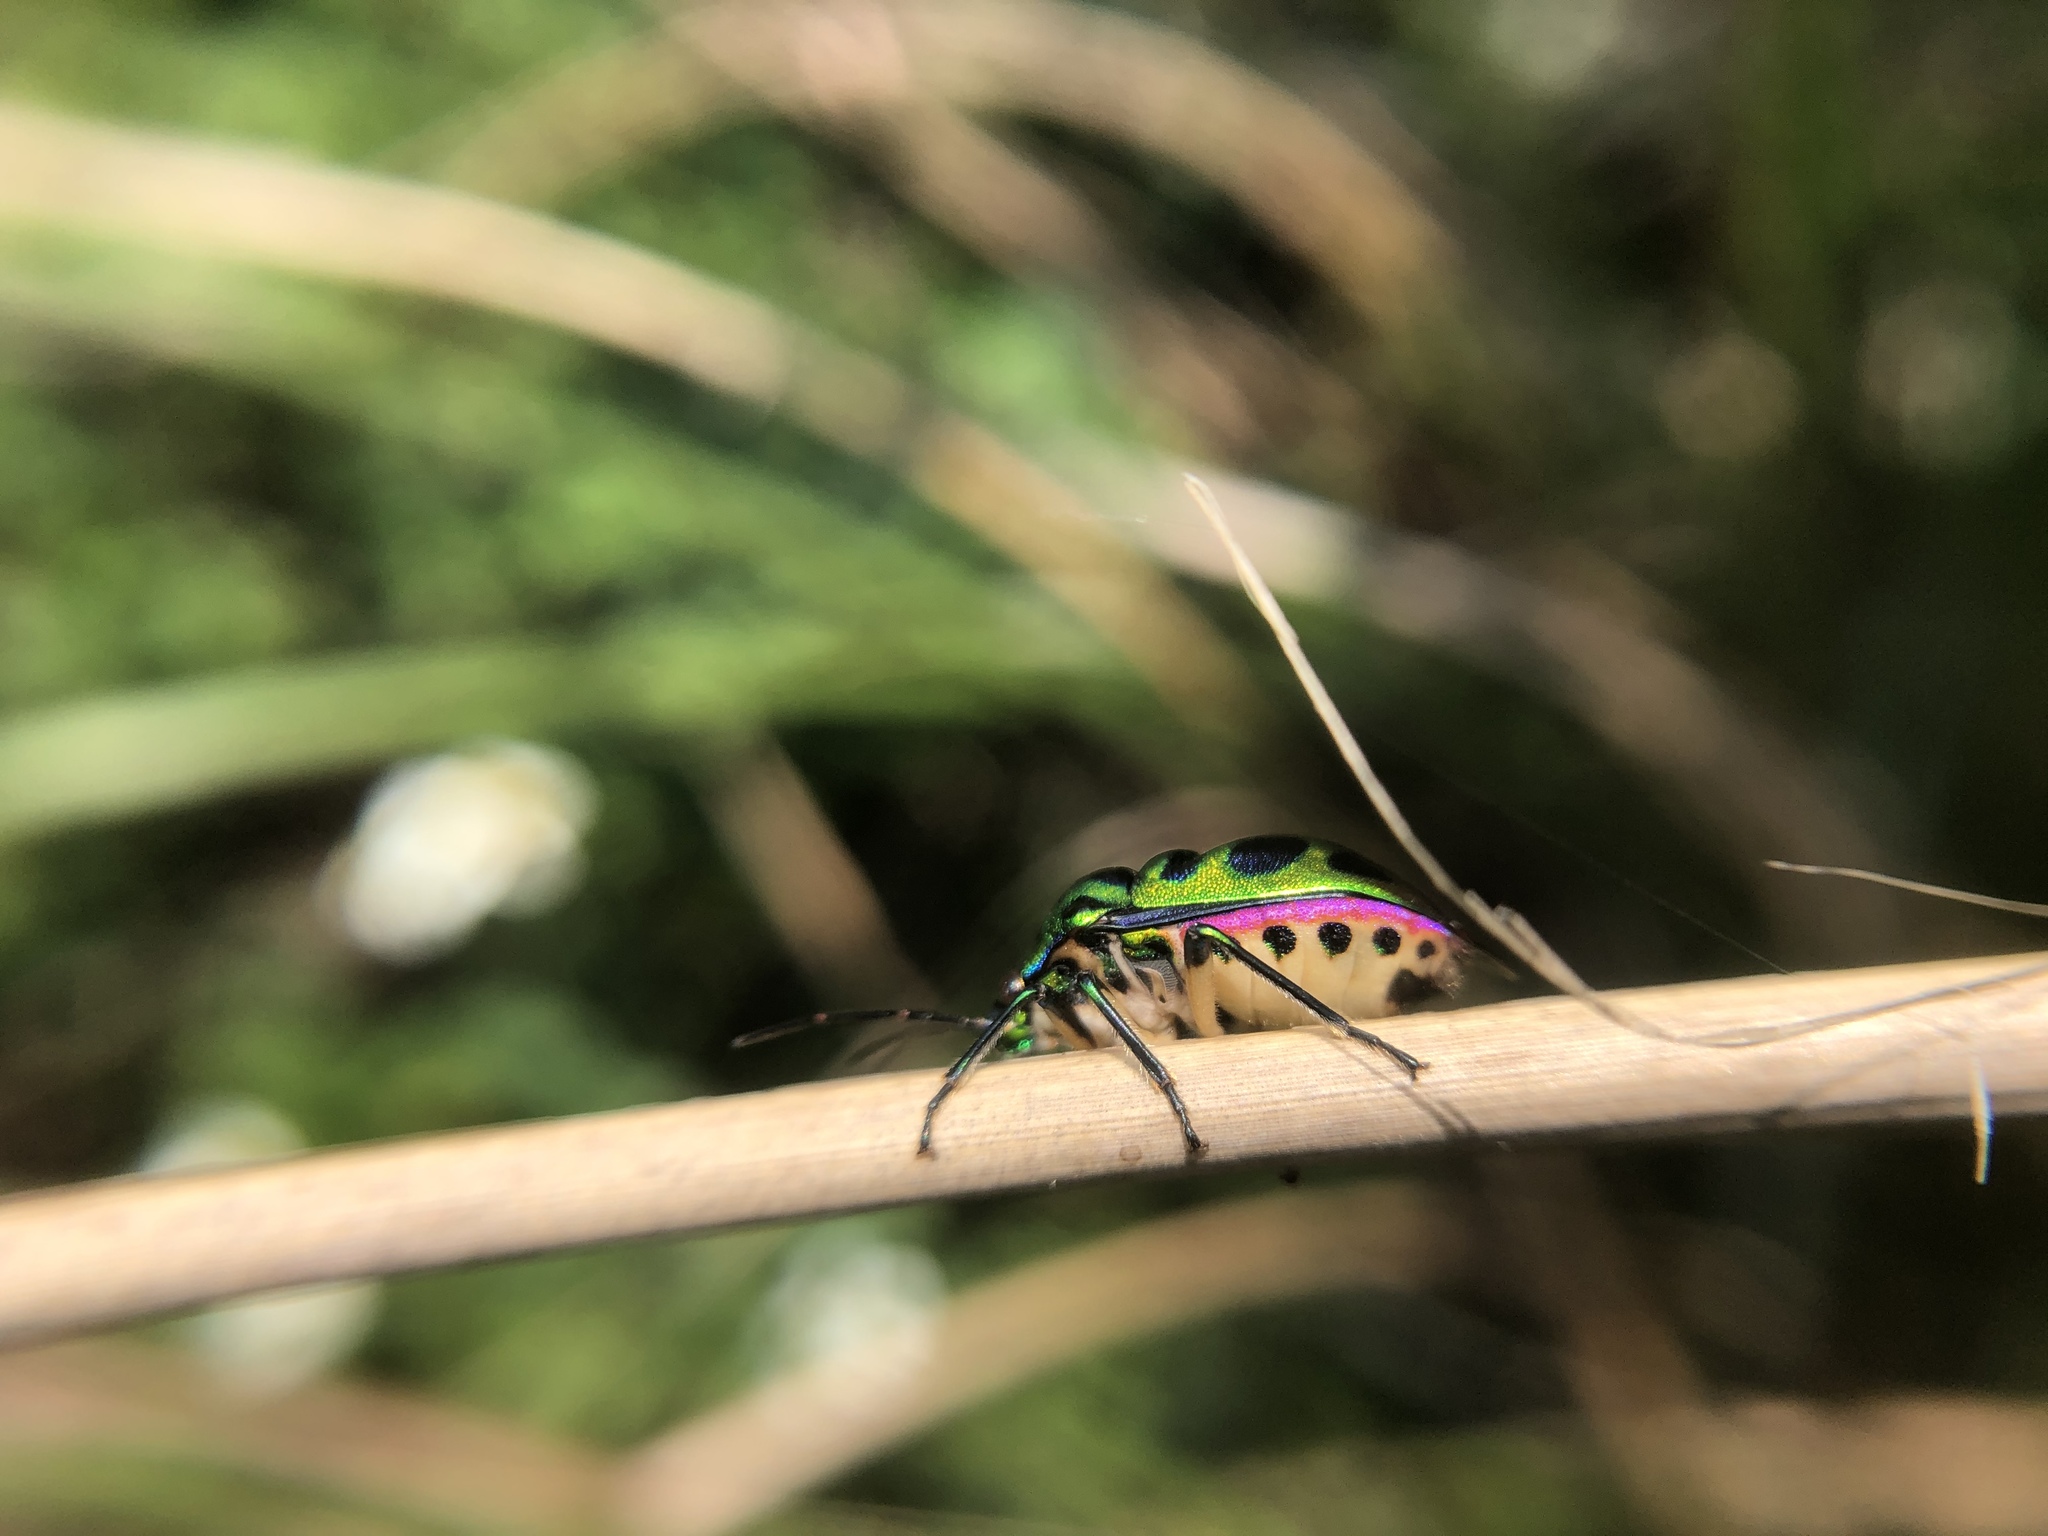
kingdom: Animalia
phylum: Arthropoda
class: Insecta
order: Hemiptera
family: Scutelleridae
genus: Chrysocoris
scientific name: Chrysocoris stollii
